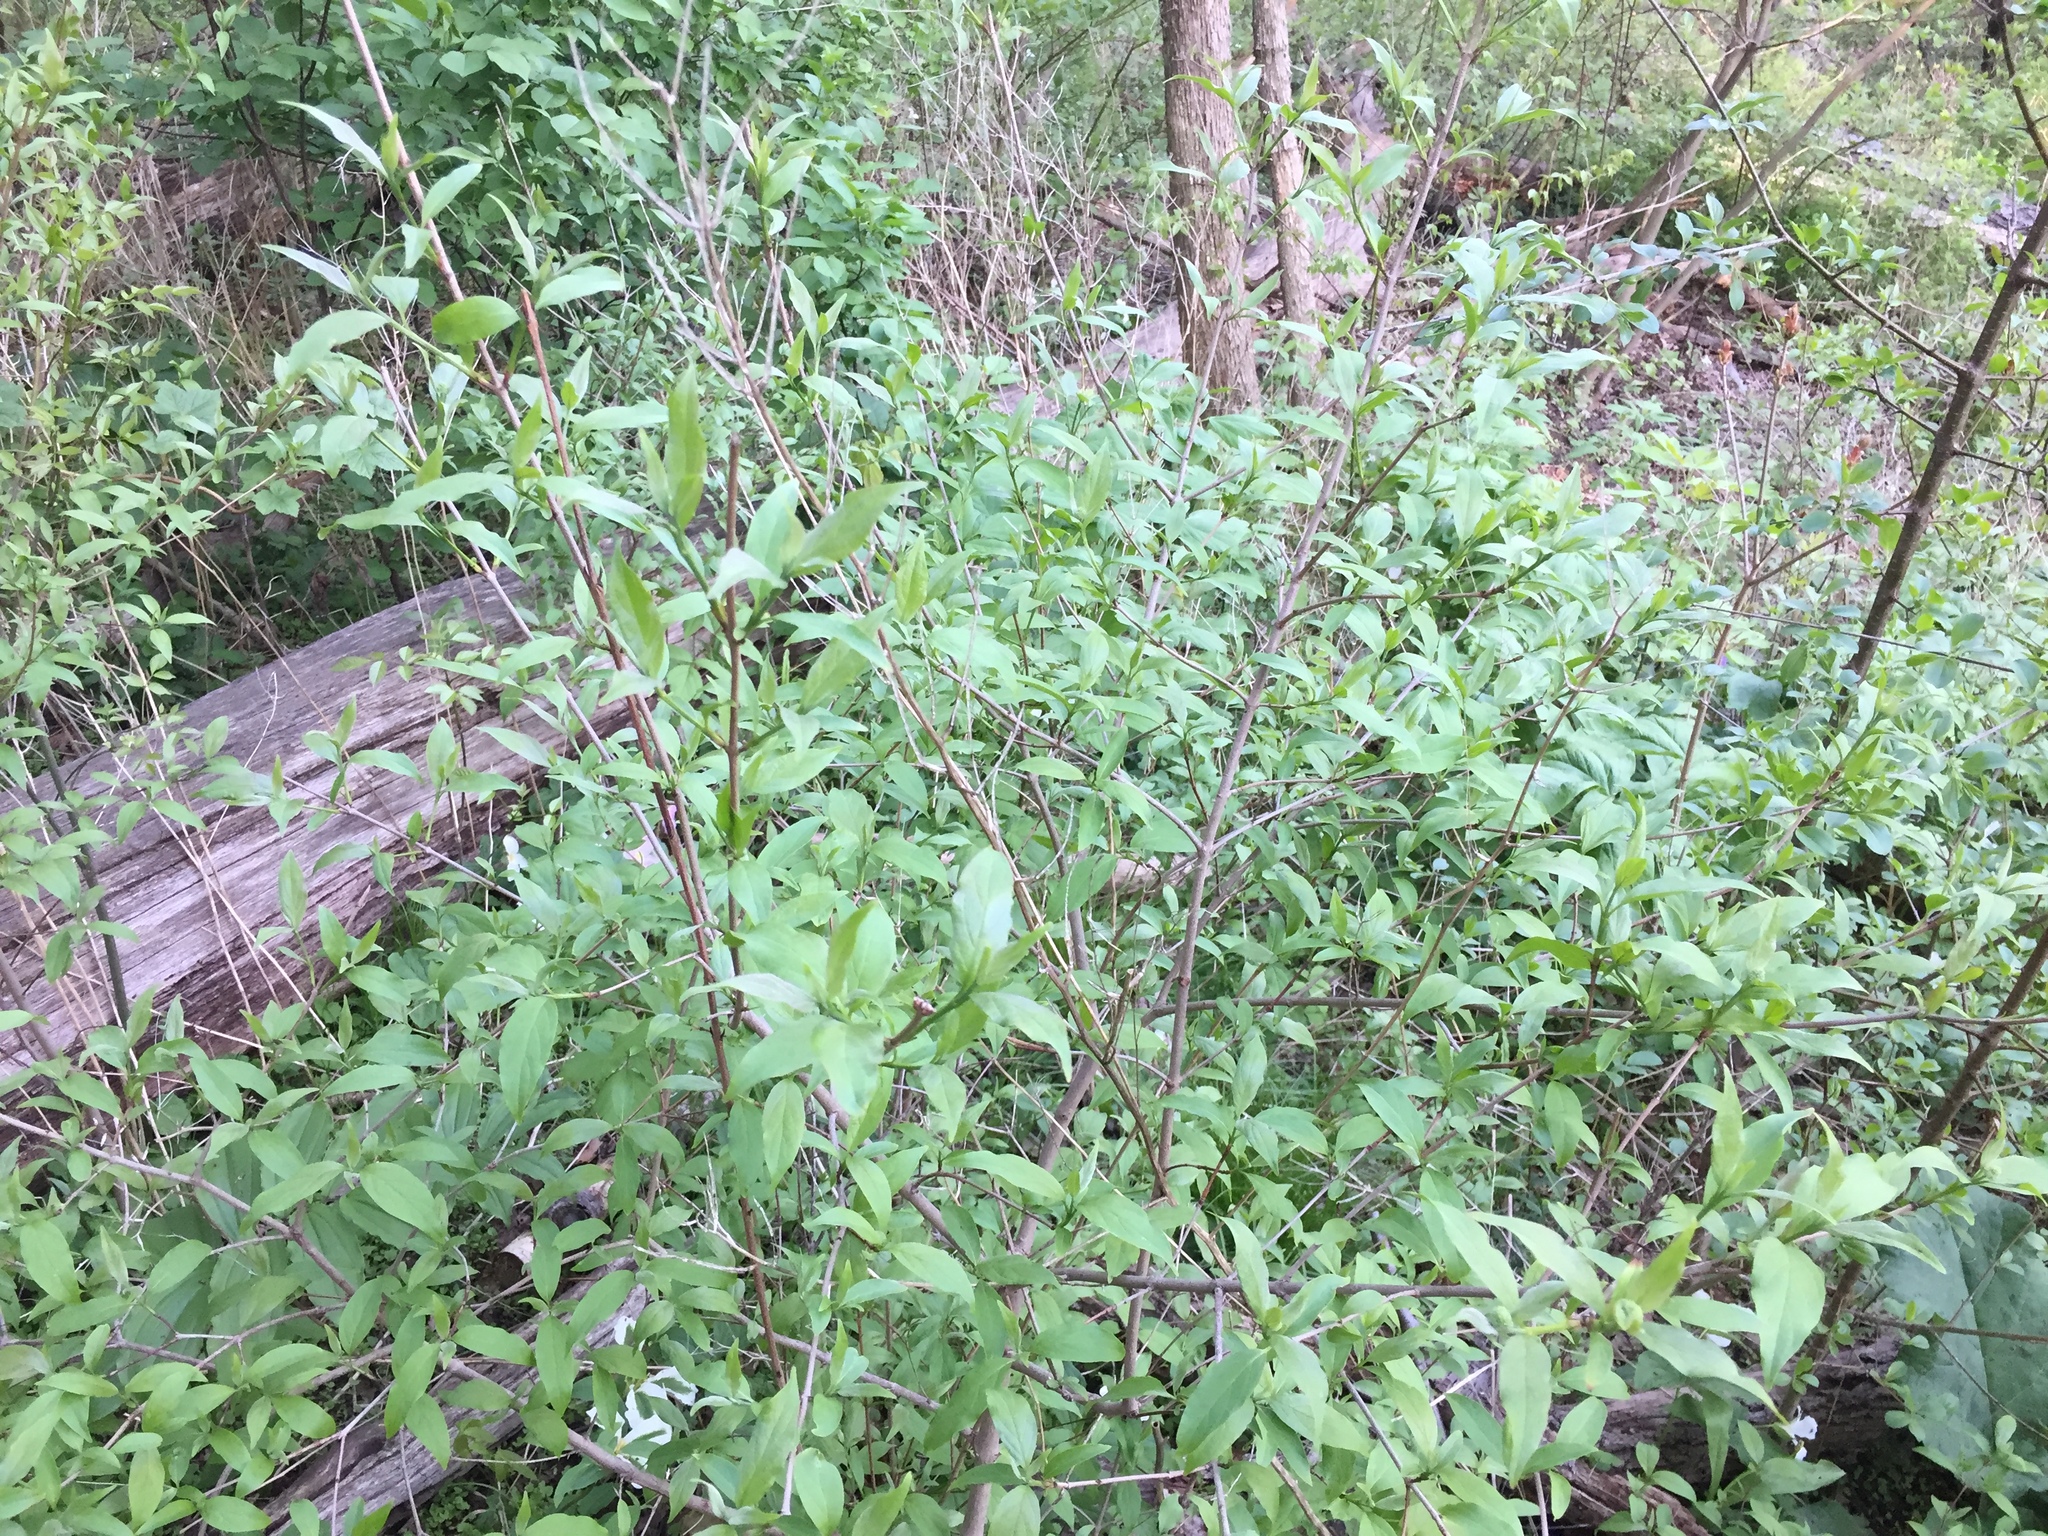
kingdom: Plantae
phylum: Tracheophyta
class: Magnoliopsida
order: Cornales
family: Cornaceae
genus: Cornus
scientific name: Cornus racemosa
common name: Panicled dogwood
